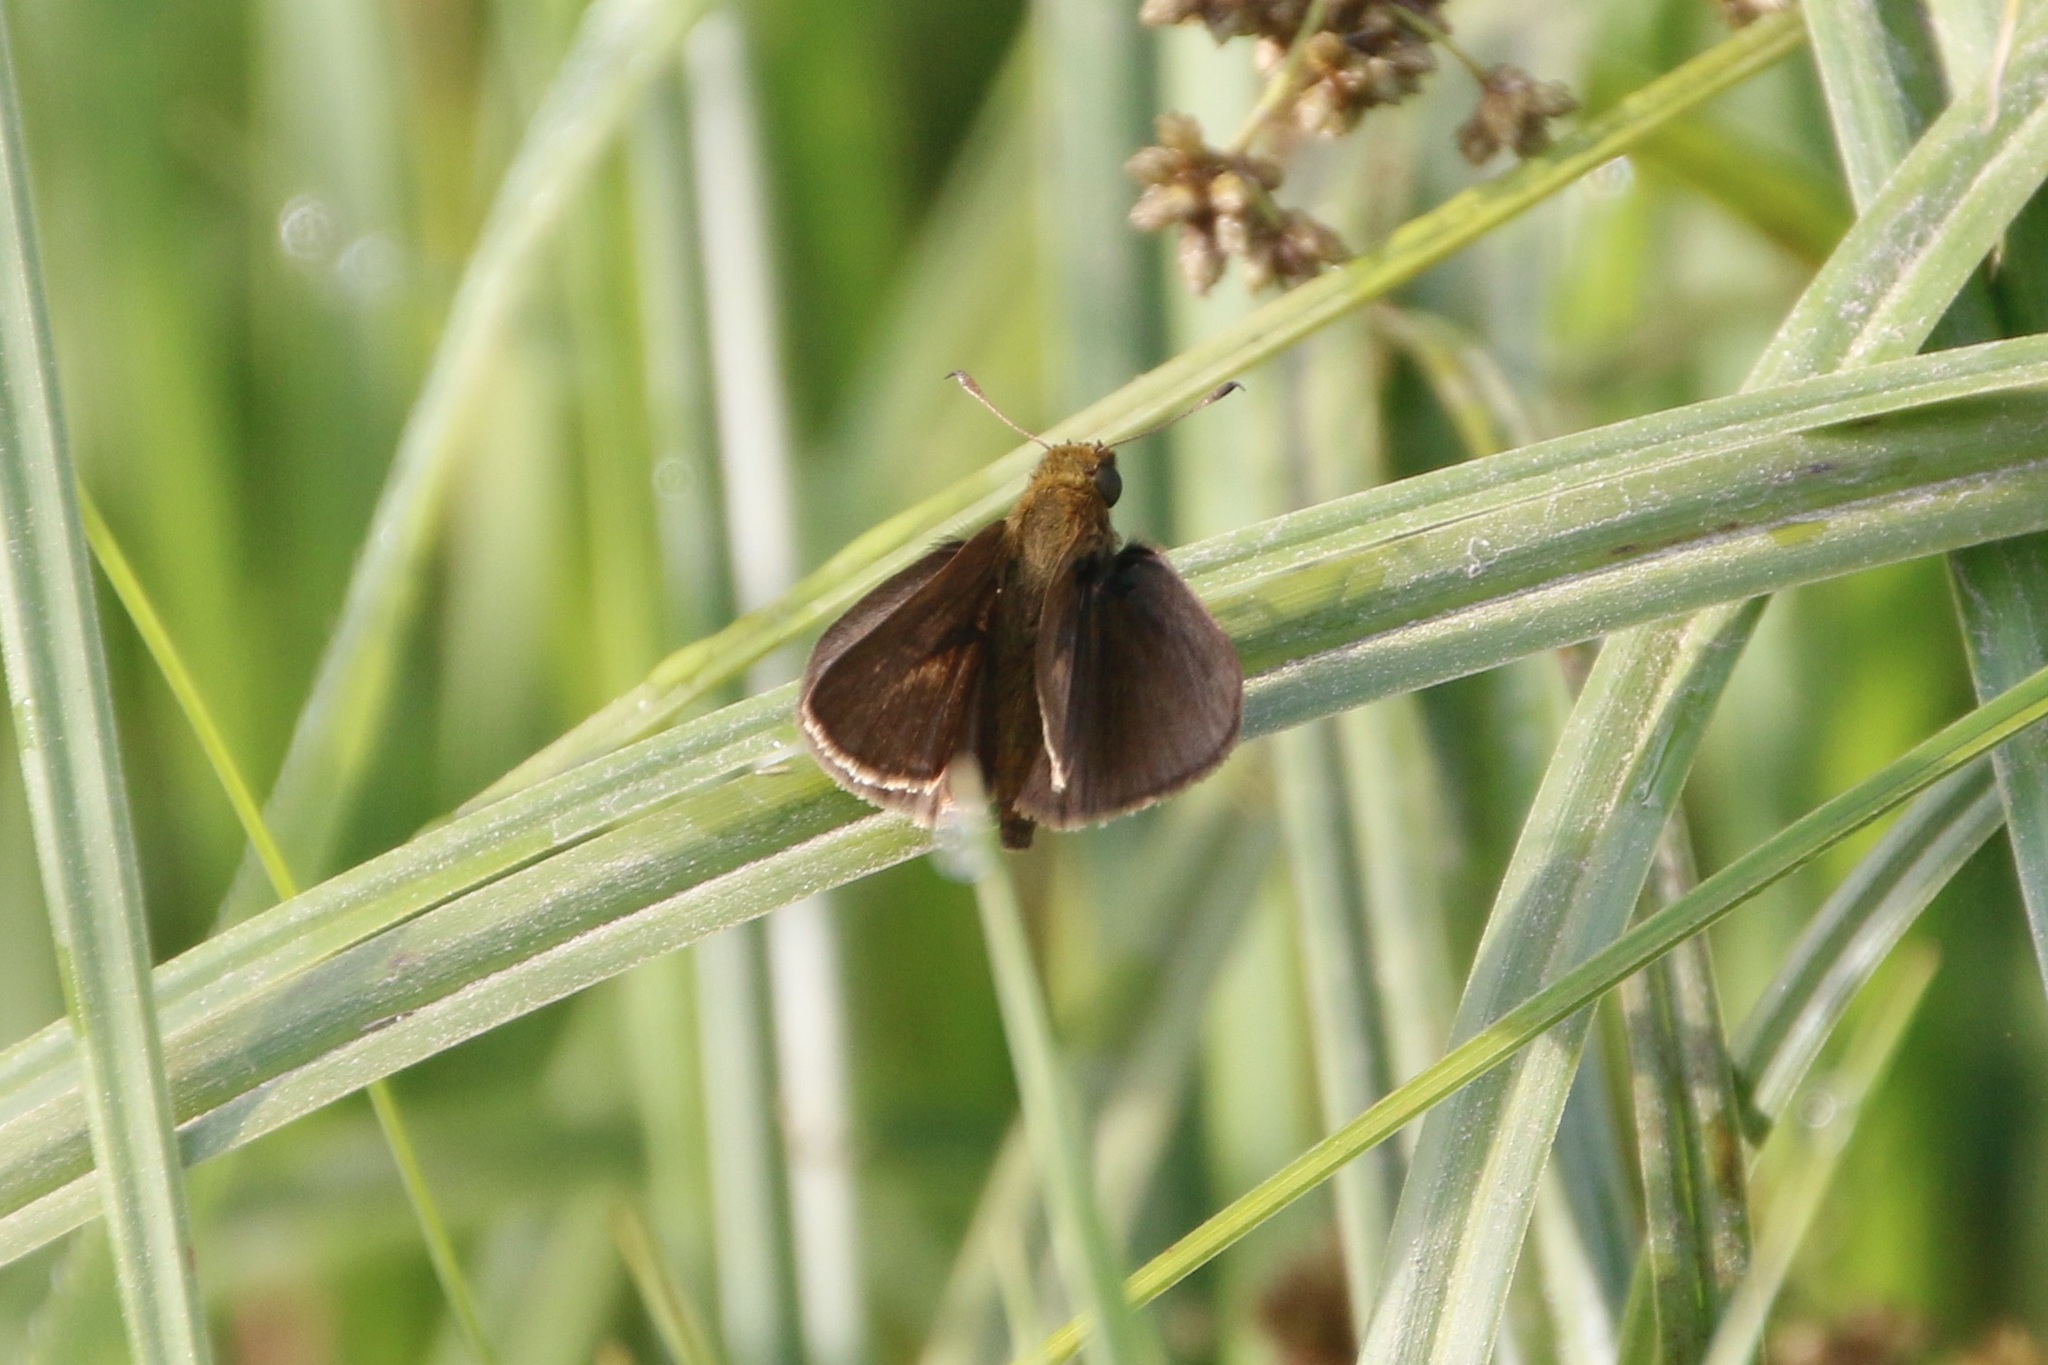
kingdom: Animalia
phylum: Arthropoda
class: Insecta
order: Lepidoptera
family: Hesperiidae
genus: Euphyes
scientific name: Euphyes vestris
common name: Dun skipper
